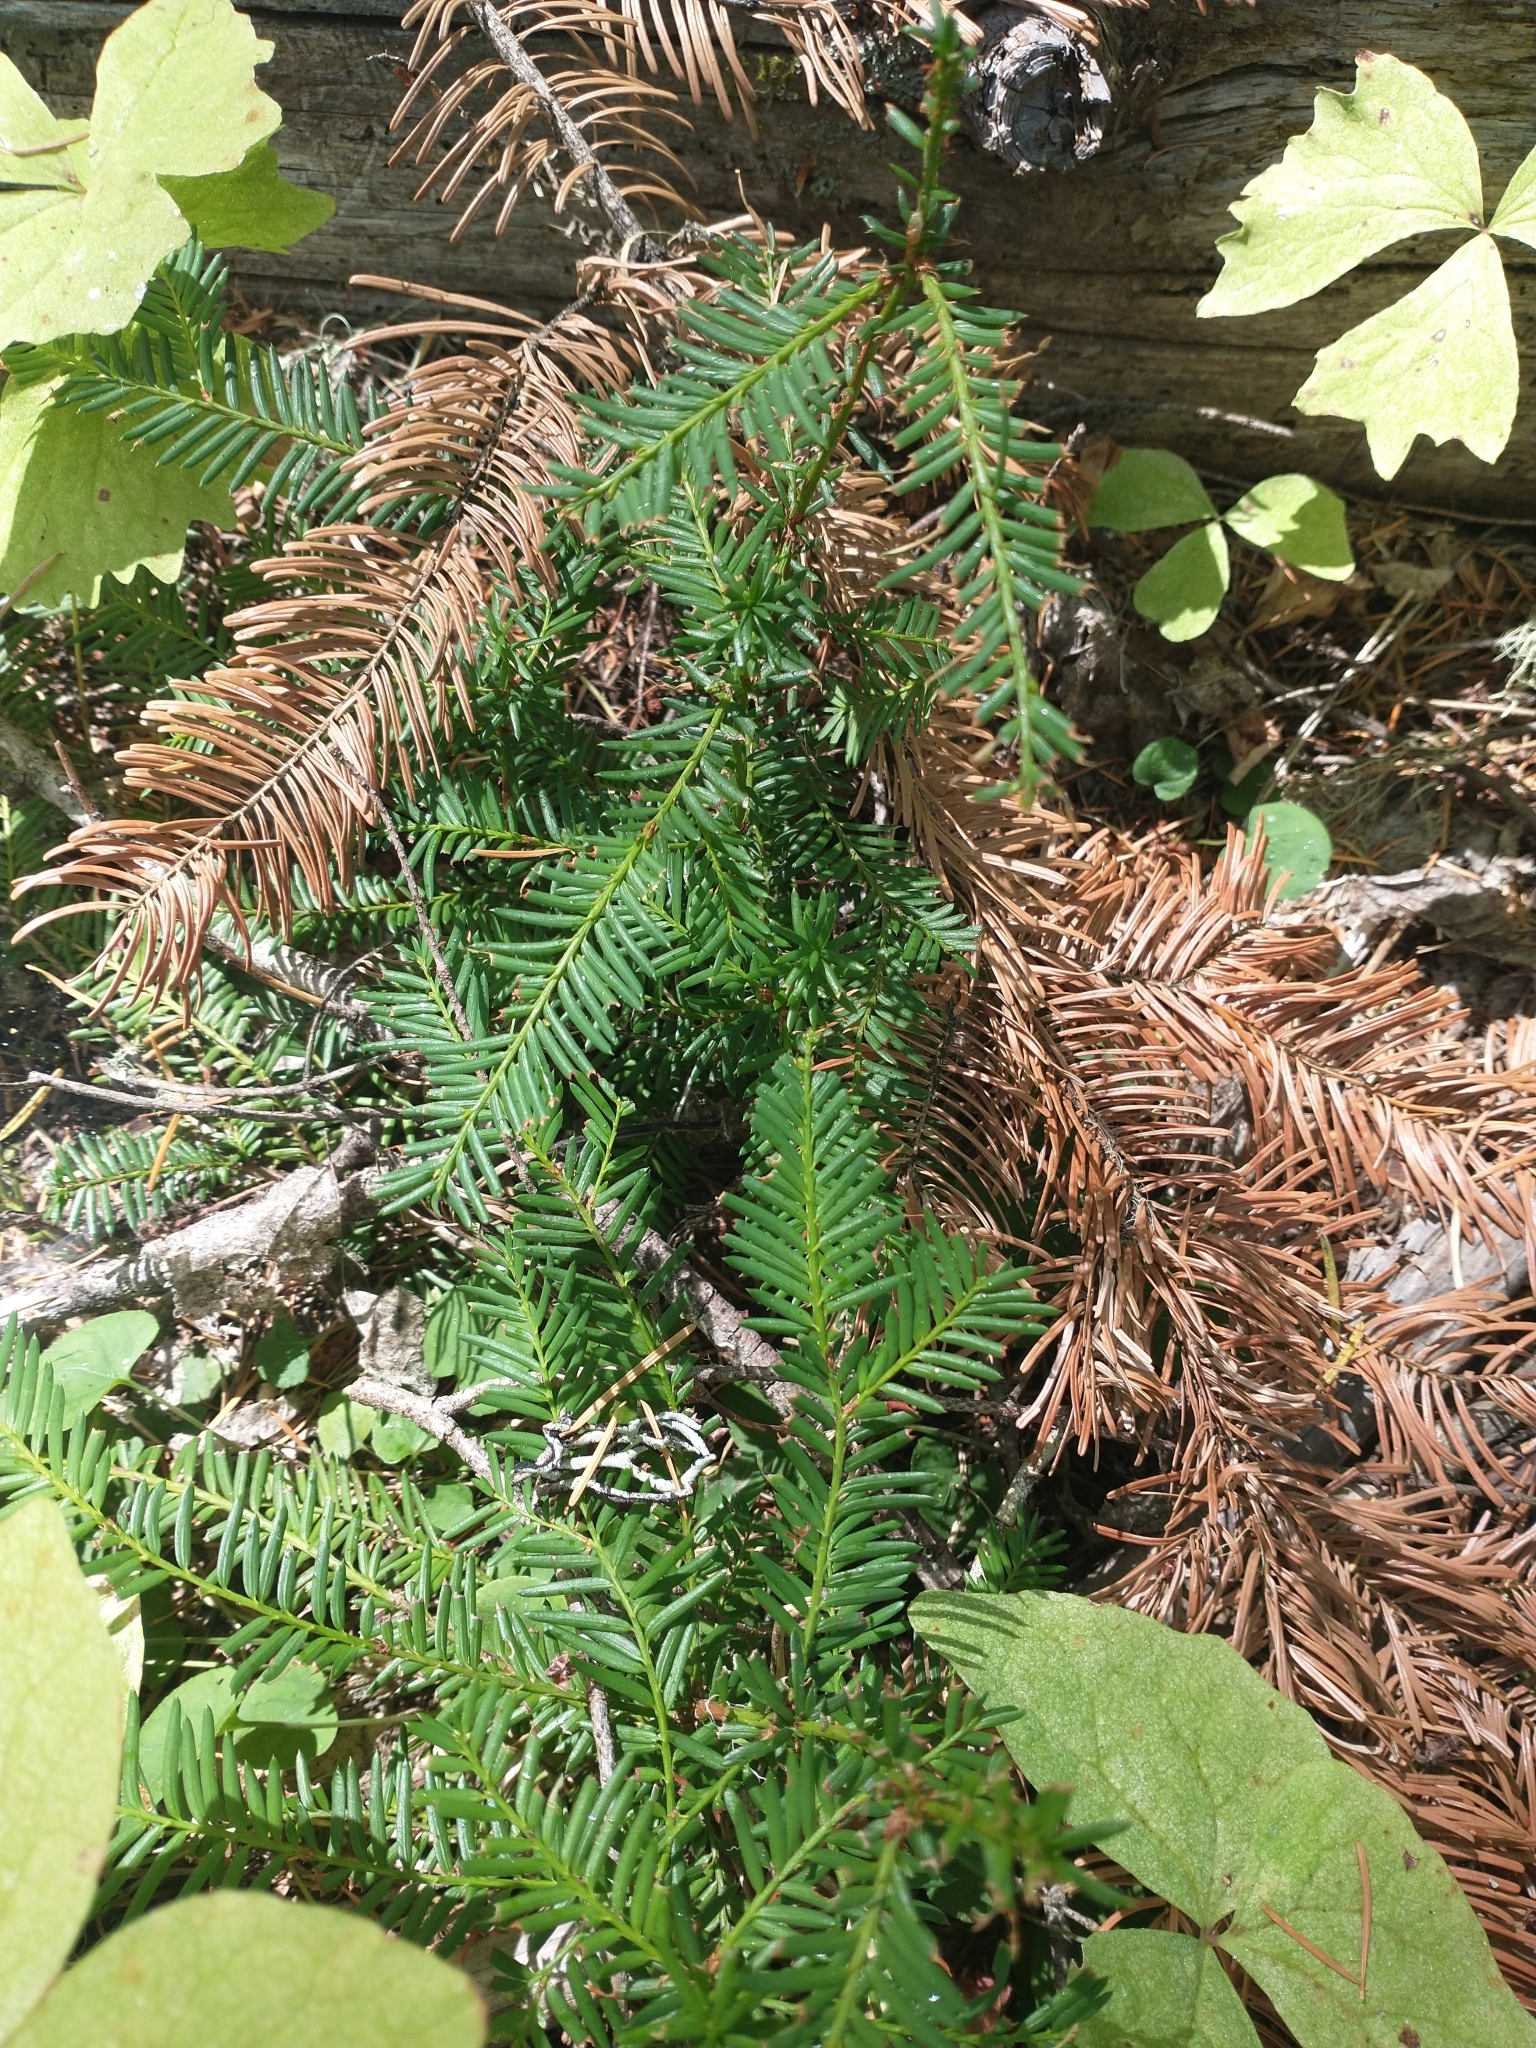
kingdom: Plantae
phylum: Tracheophyta
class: Pinopsida
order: Pinales
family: Taxaceae
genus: Taxus
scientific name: Taxus brevifolia
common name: Pacific yew
